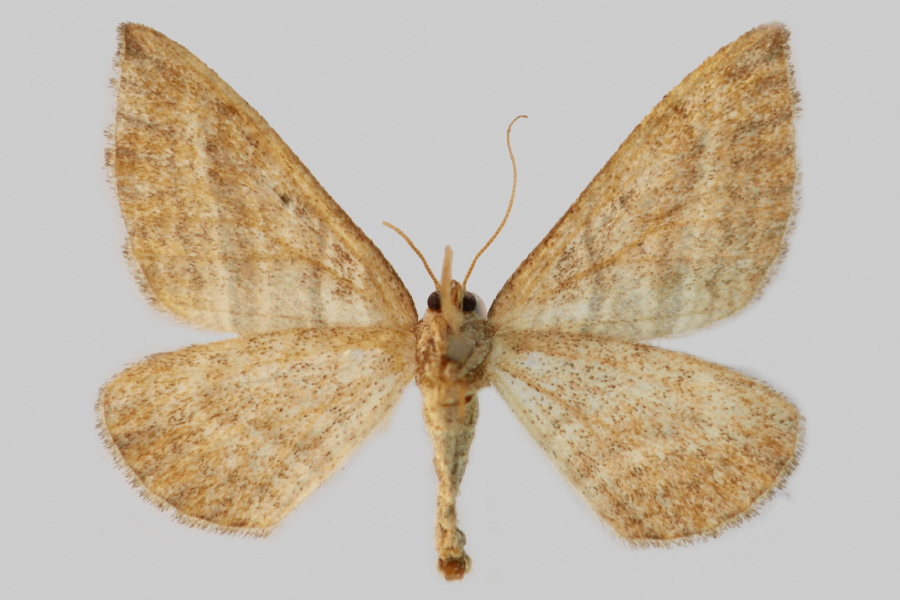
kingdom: Animalia
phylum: Arthropoda
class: Insecta
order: Lepidoptera
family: Geometridae
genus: Phibalapteryx
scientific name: Phibalapteryx virgata
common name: Oblique striped
